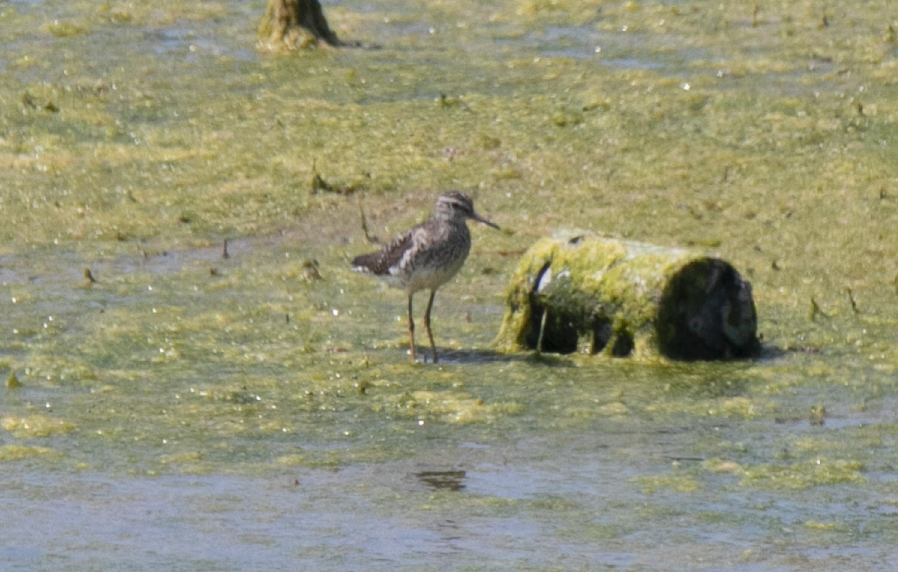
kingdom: Animalia
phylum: Chordata
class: Aves
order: Charadriiformes
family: Scolopacidae
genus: Tringa
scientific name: Tringa glareola
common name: Wood sandpiper
